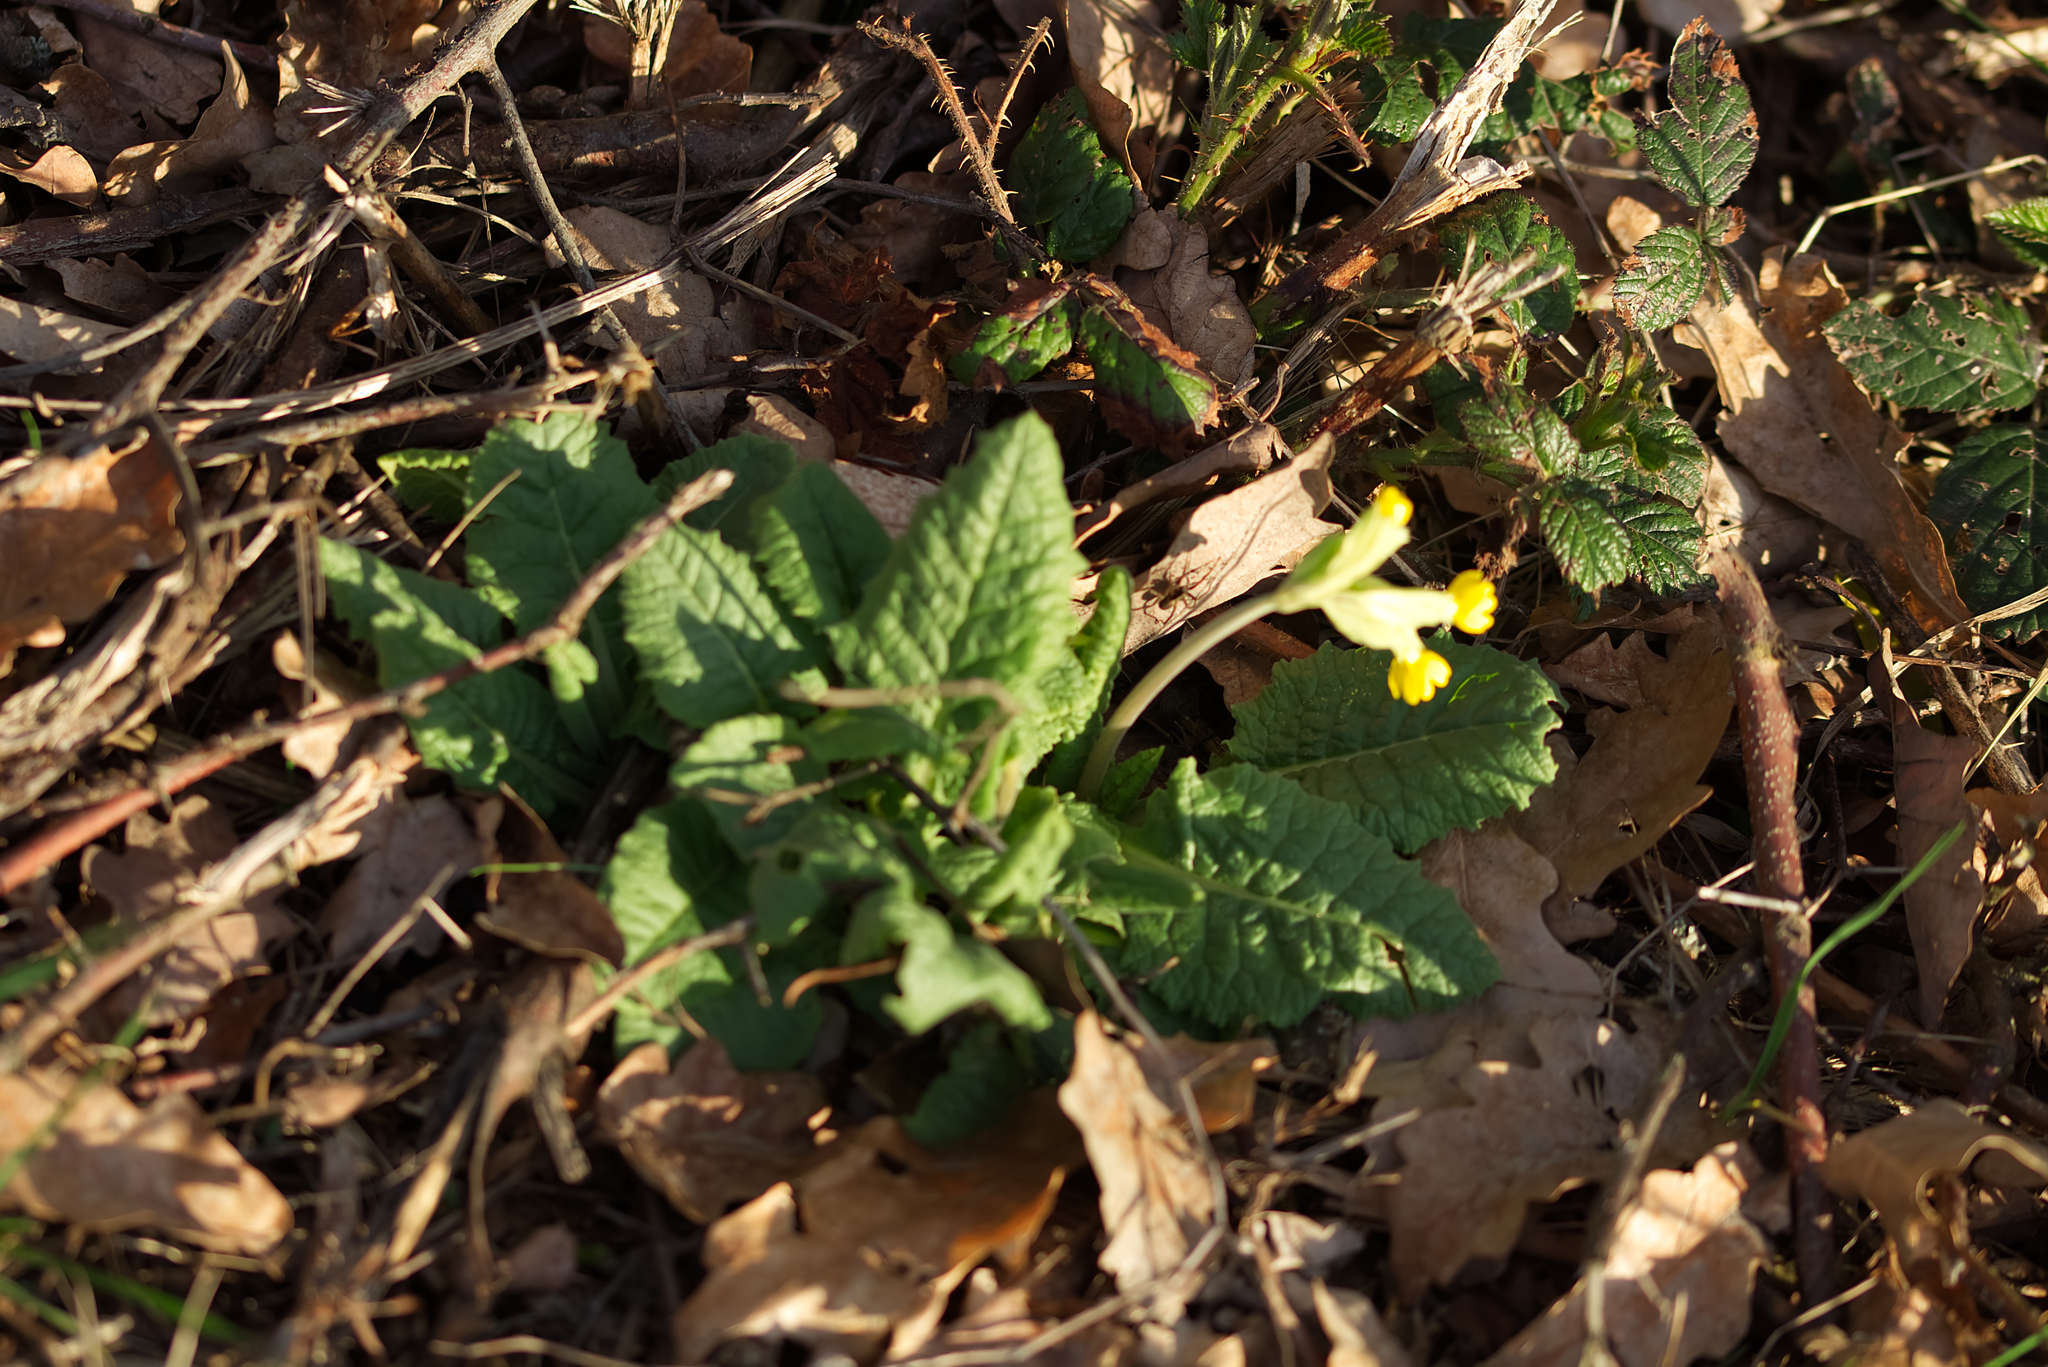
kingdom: Plantae
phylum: Tracheophyta
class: Magnoliopsida
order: Ericales
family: Primulaceae
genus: Primula
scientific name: Primula veris
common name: Cowslip
